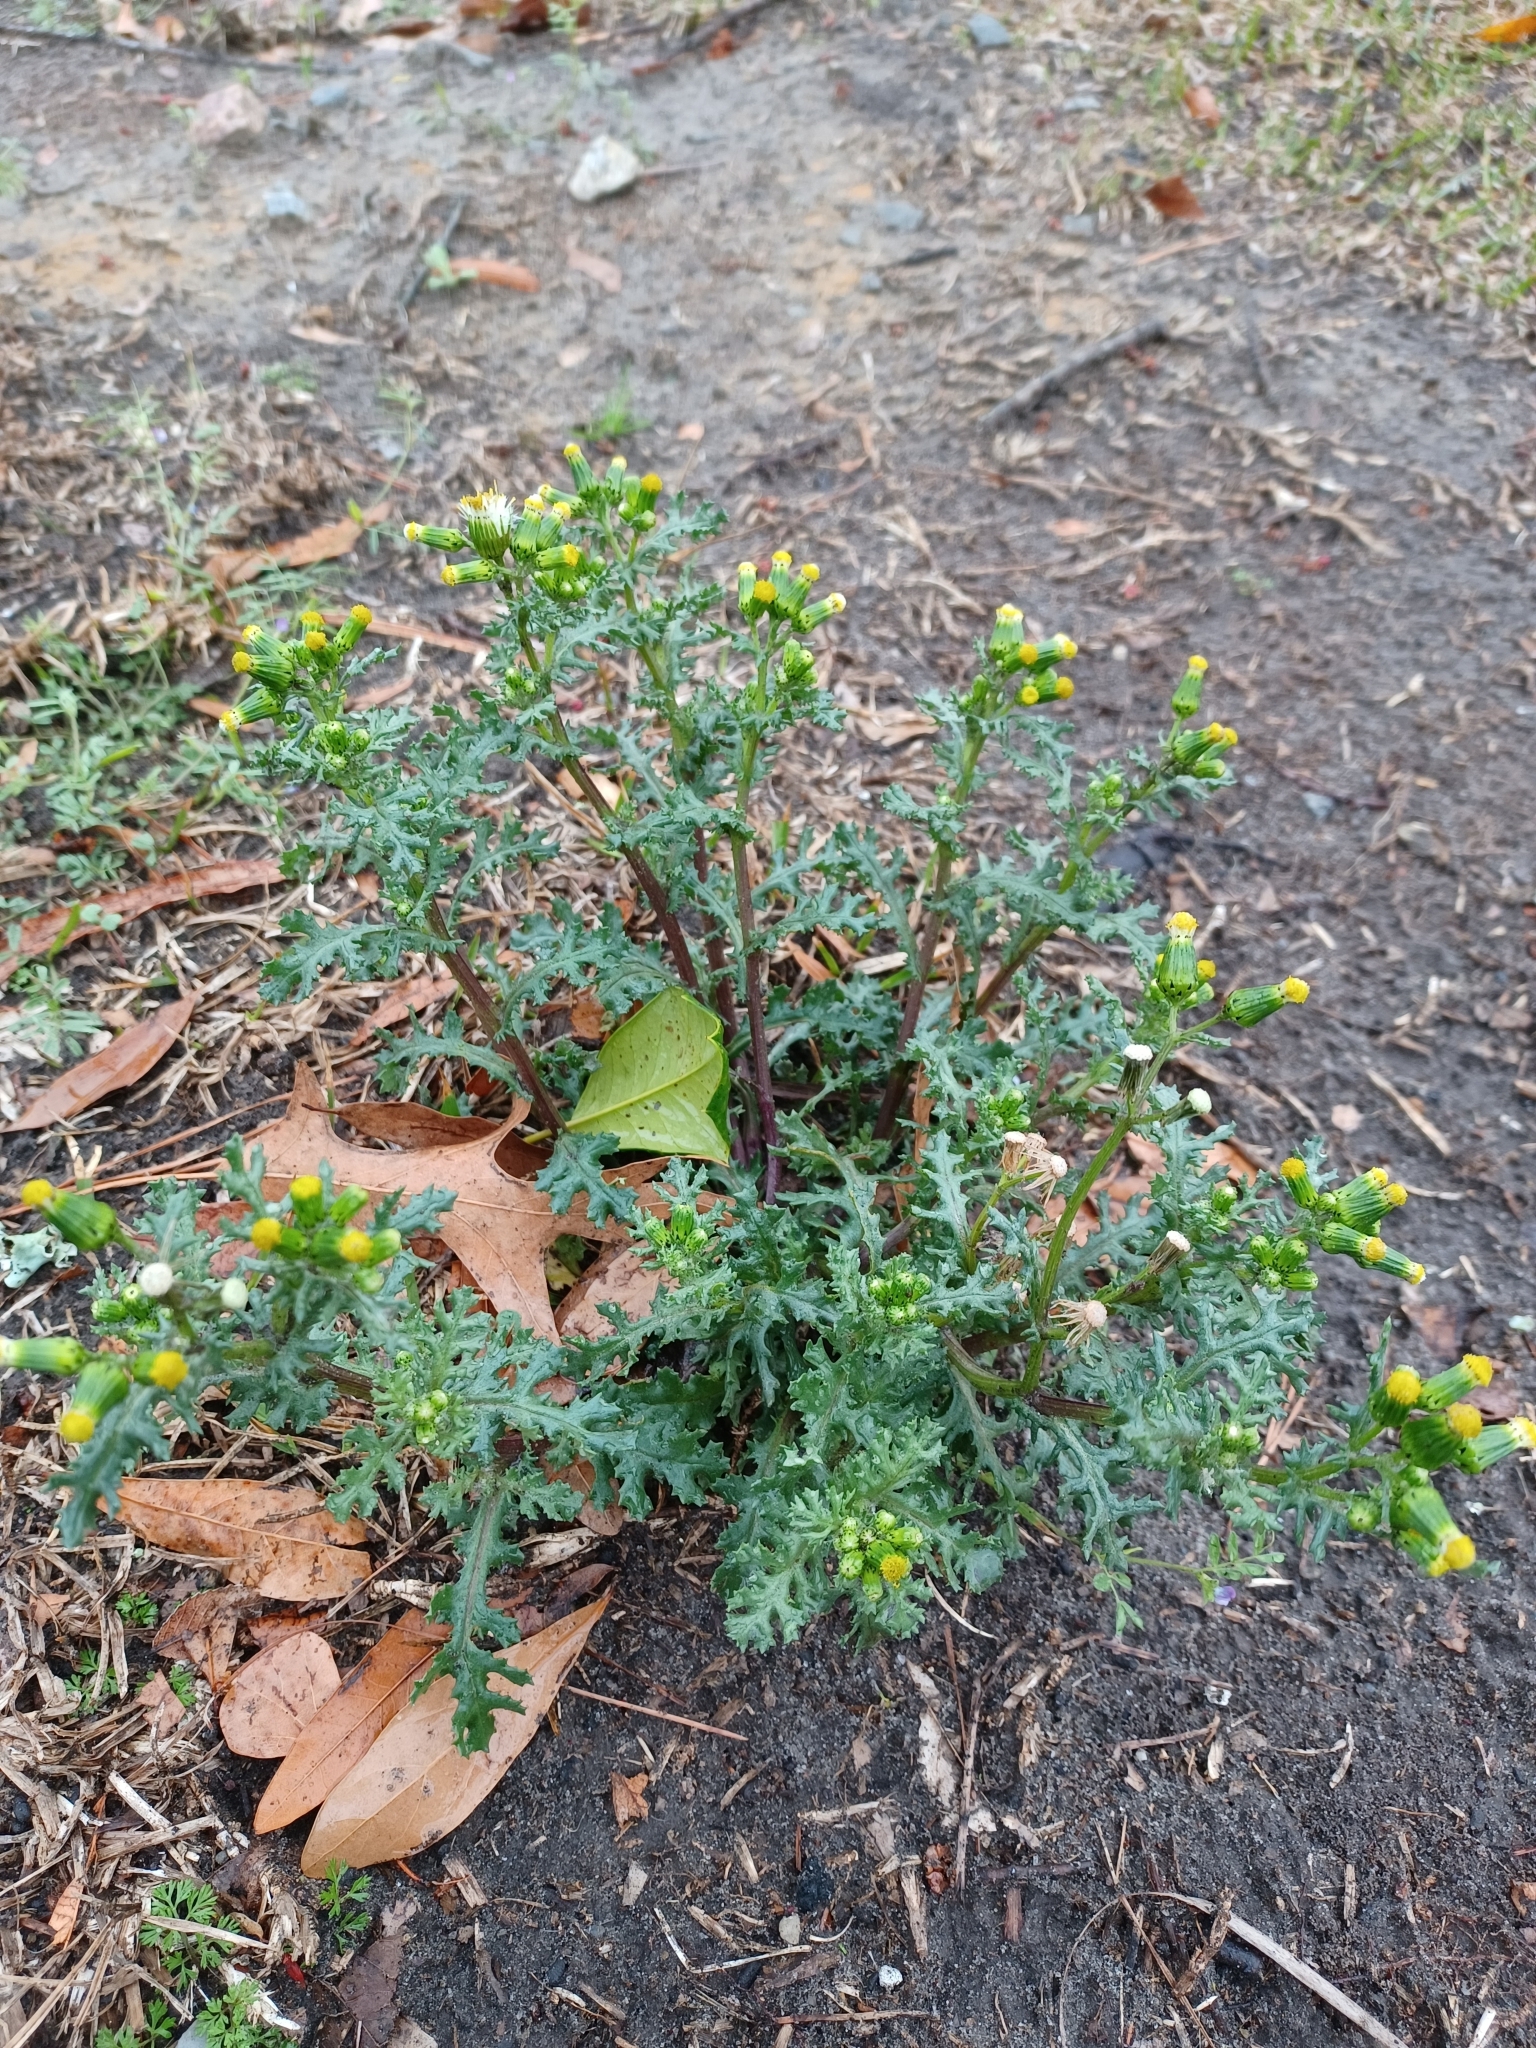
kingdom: Plantae
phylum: Tracheophyta
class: Magnoliopsida
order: Asterales
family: Asteraceae
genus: Senecio
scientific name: Senecio vulgaris
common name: Old-man-in-the-spring
